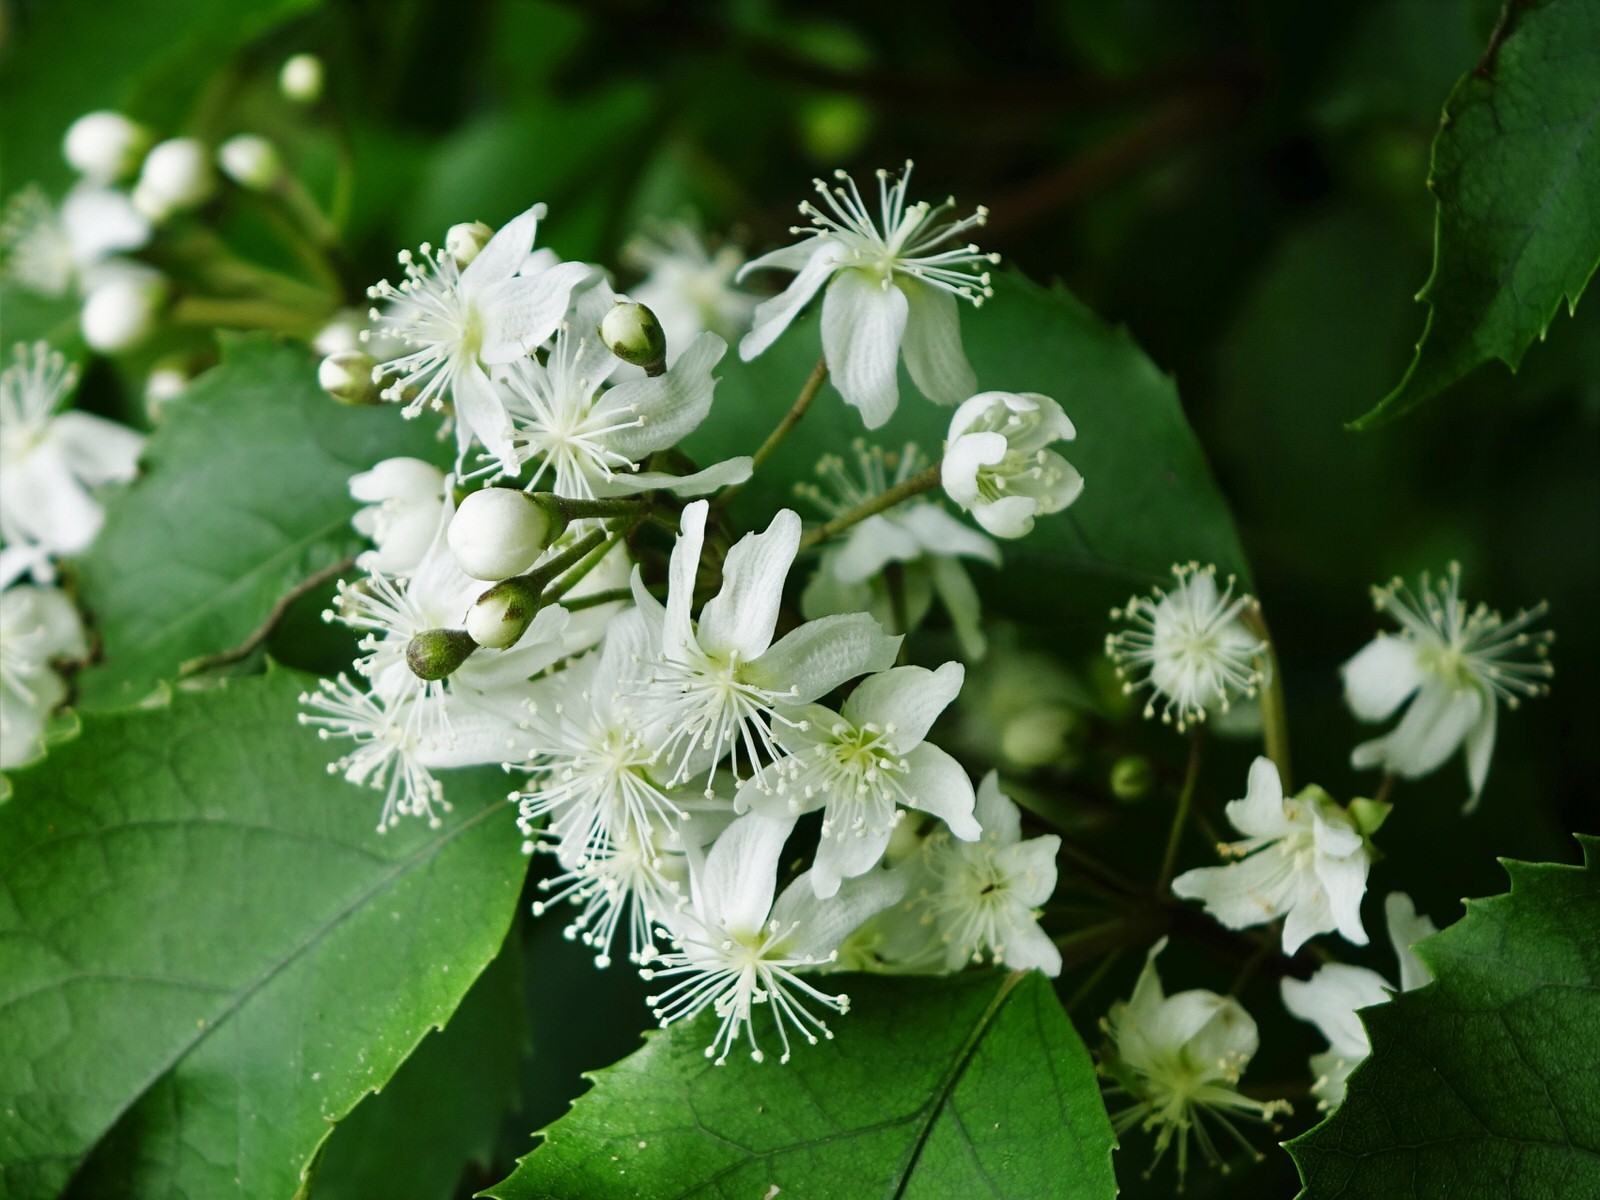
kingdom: Plantae
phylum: Tracheophyta
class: Magnoliopsida
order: Malvales
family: Malvaceae
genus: Hoheria
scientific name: Hoheria populnea
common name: Lacebark
